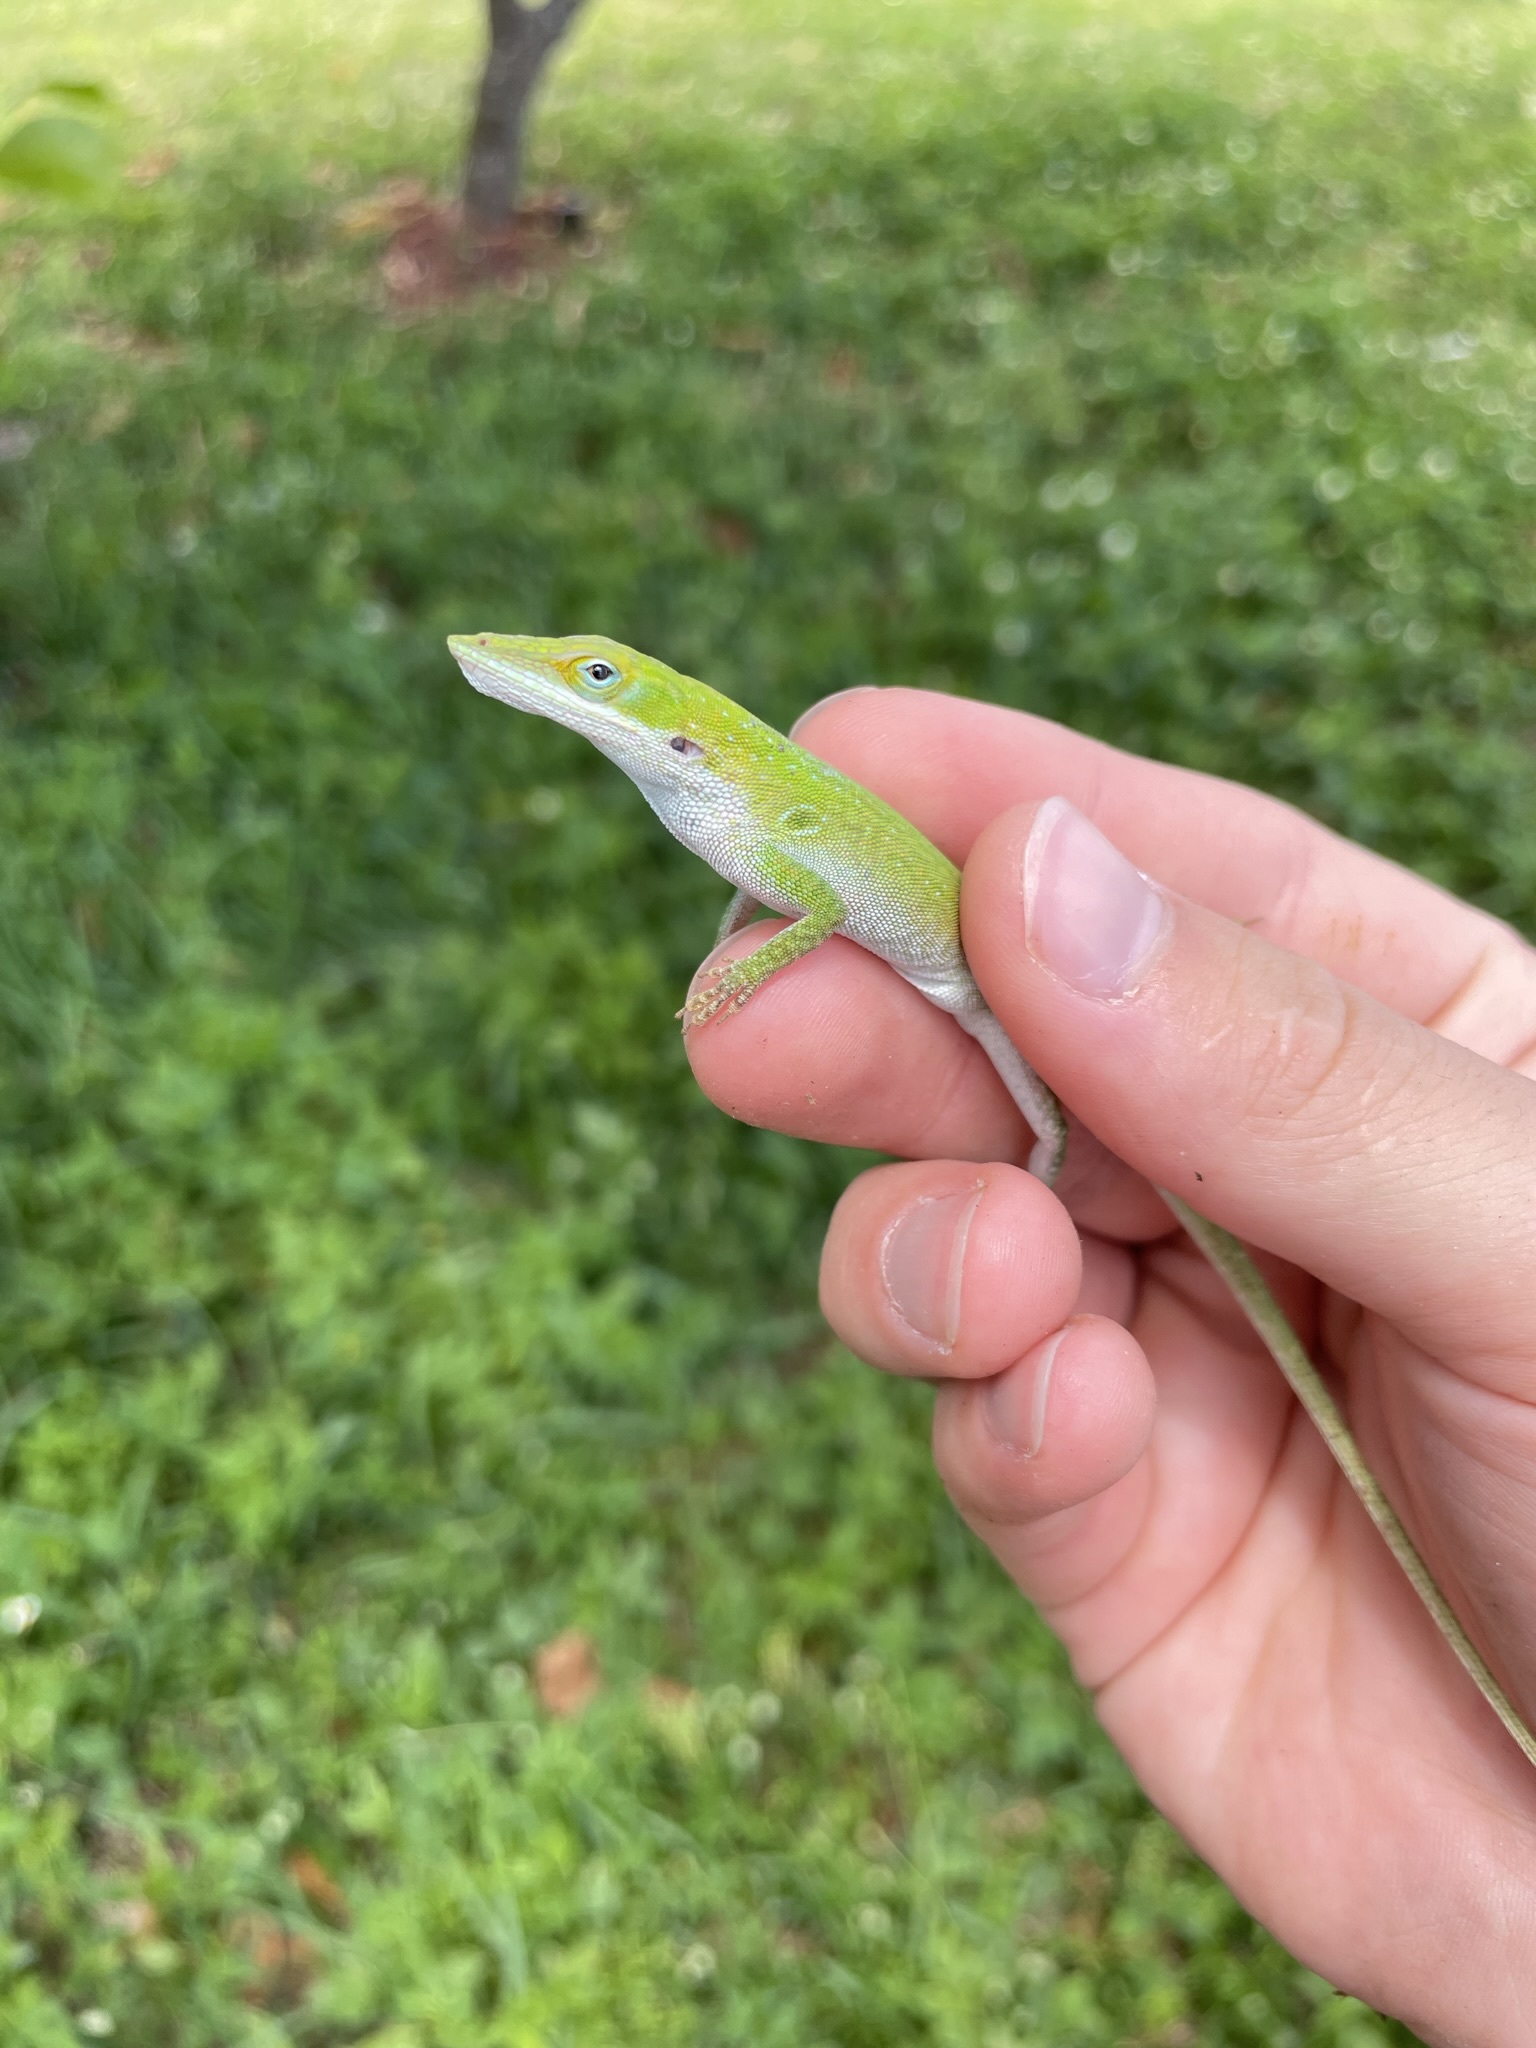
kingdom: Animalia
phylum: Chordata
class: Squamata
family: Dactyloidae
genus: Anolis
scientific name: Anolis allisoni
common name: Allison's anole
